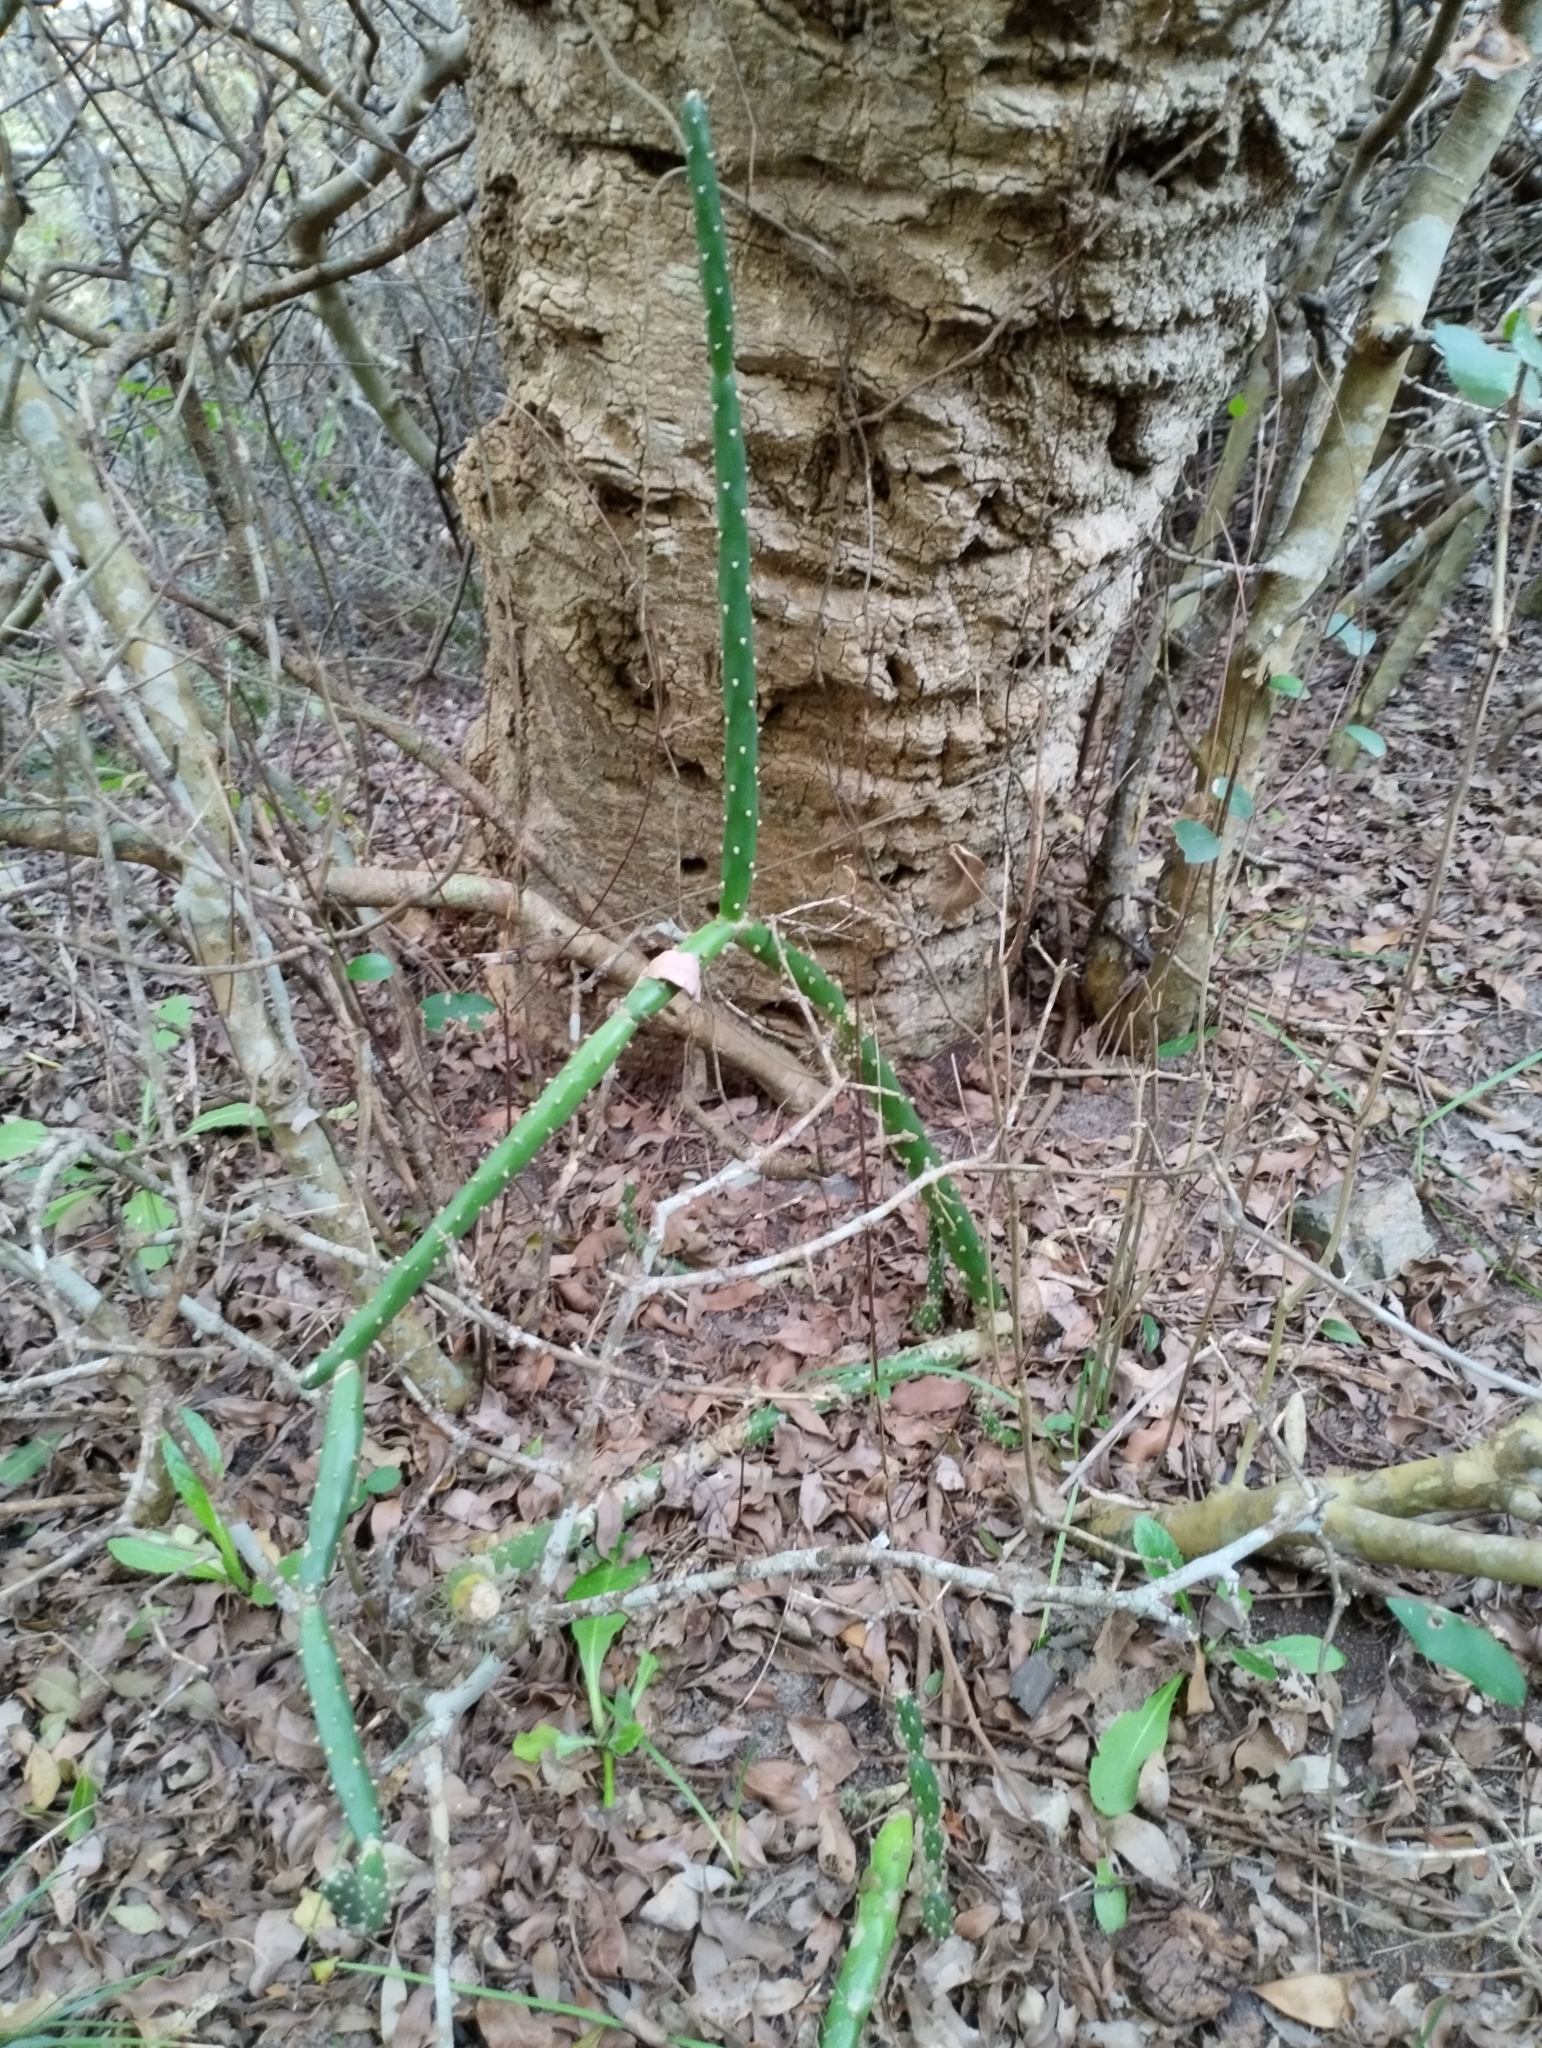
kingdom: Plantae
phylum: Tracheophyta
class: Magnoliopsida
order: Caryophyllales
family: Cactaceae
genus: Salmonopuntia
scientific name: Salmonopuntia salmiana
